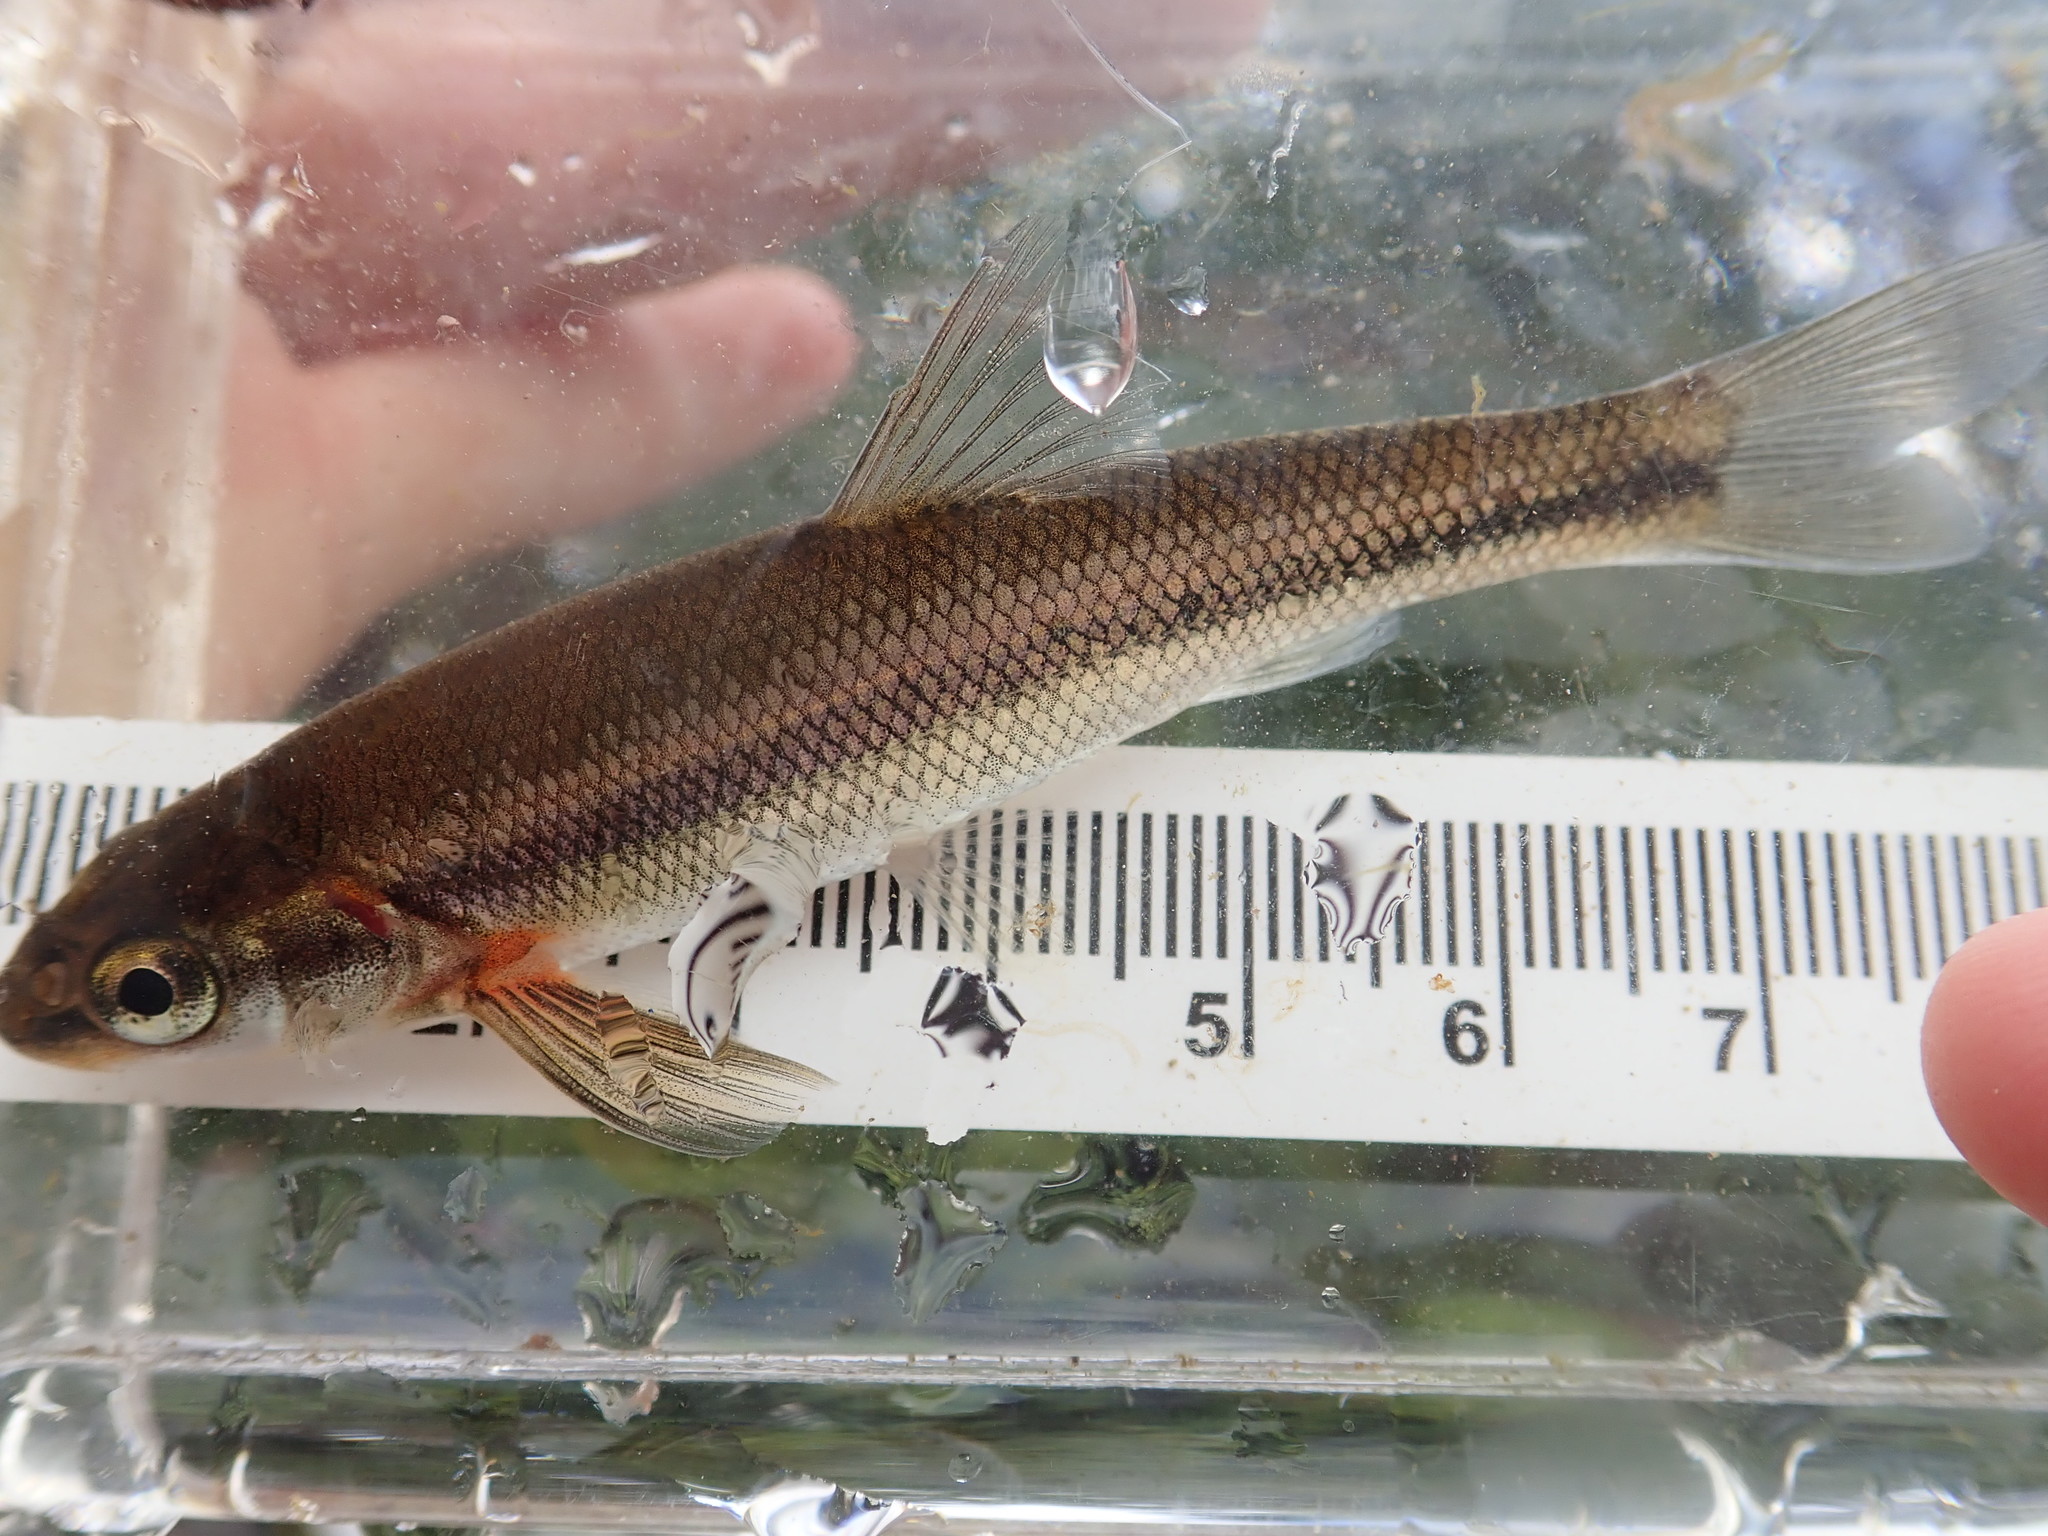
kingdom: Animalia
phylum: Chordata
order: Cypriniformes
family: Cyprinidae
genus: Couesius
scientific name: Couesius plumbeus
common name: Lake chub
